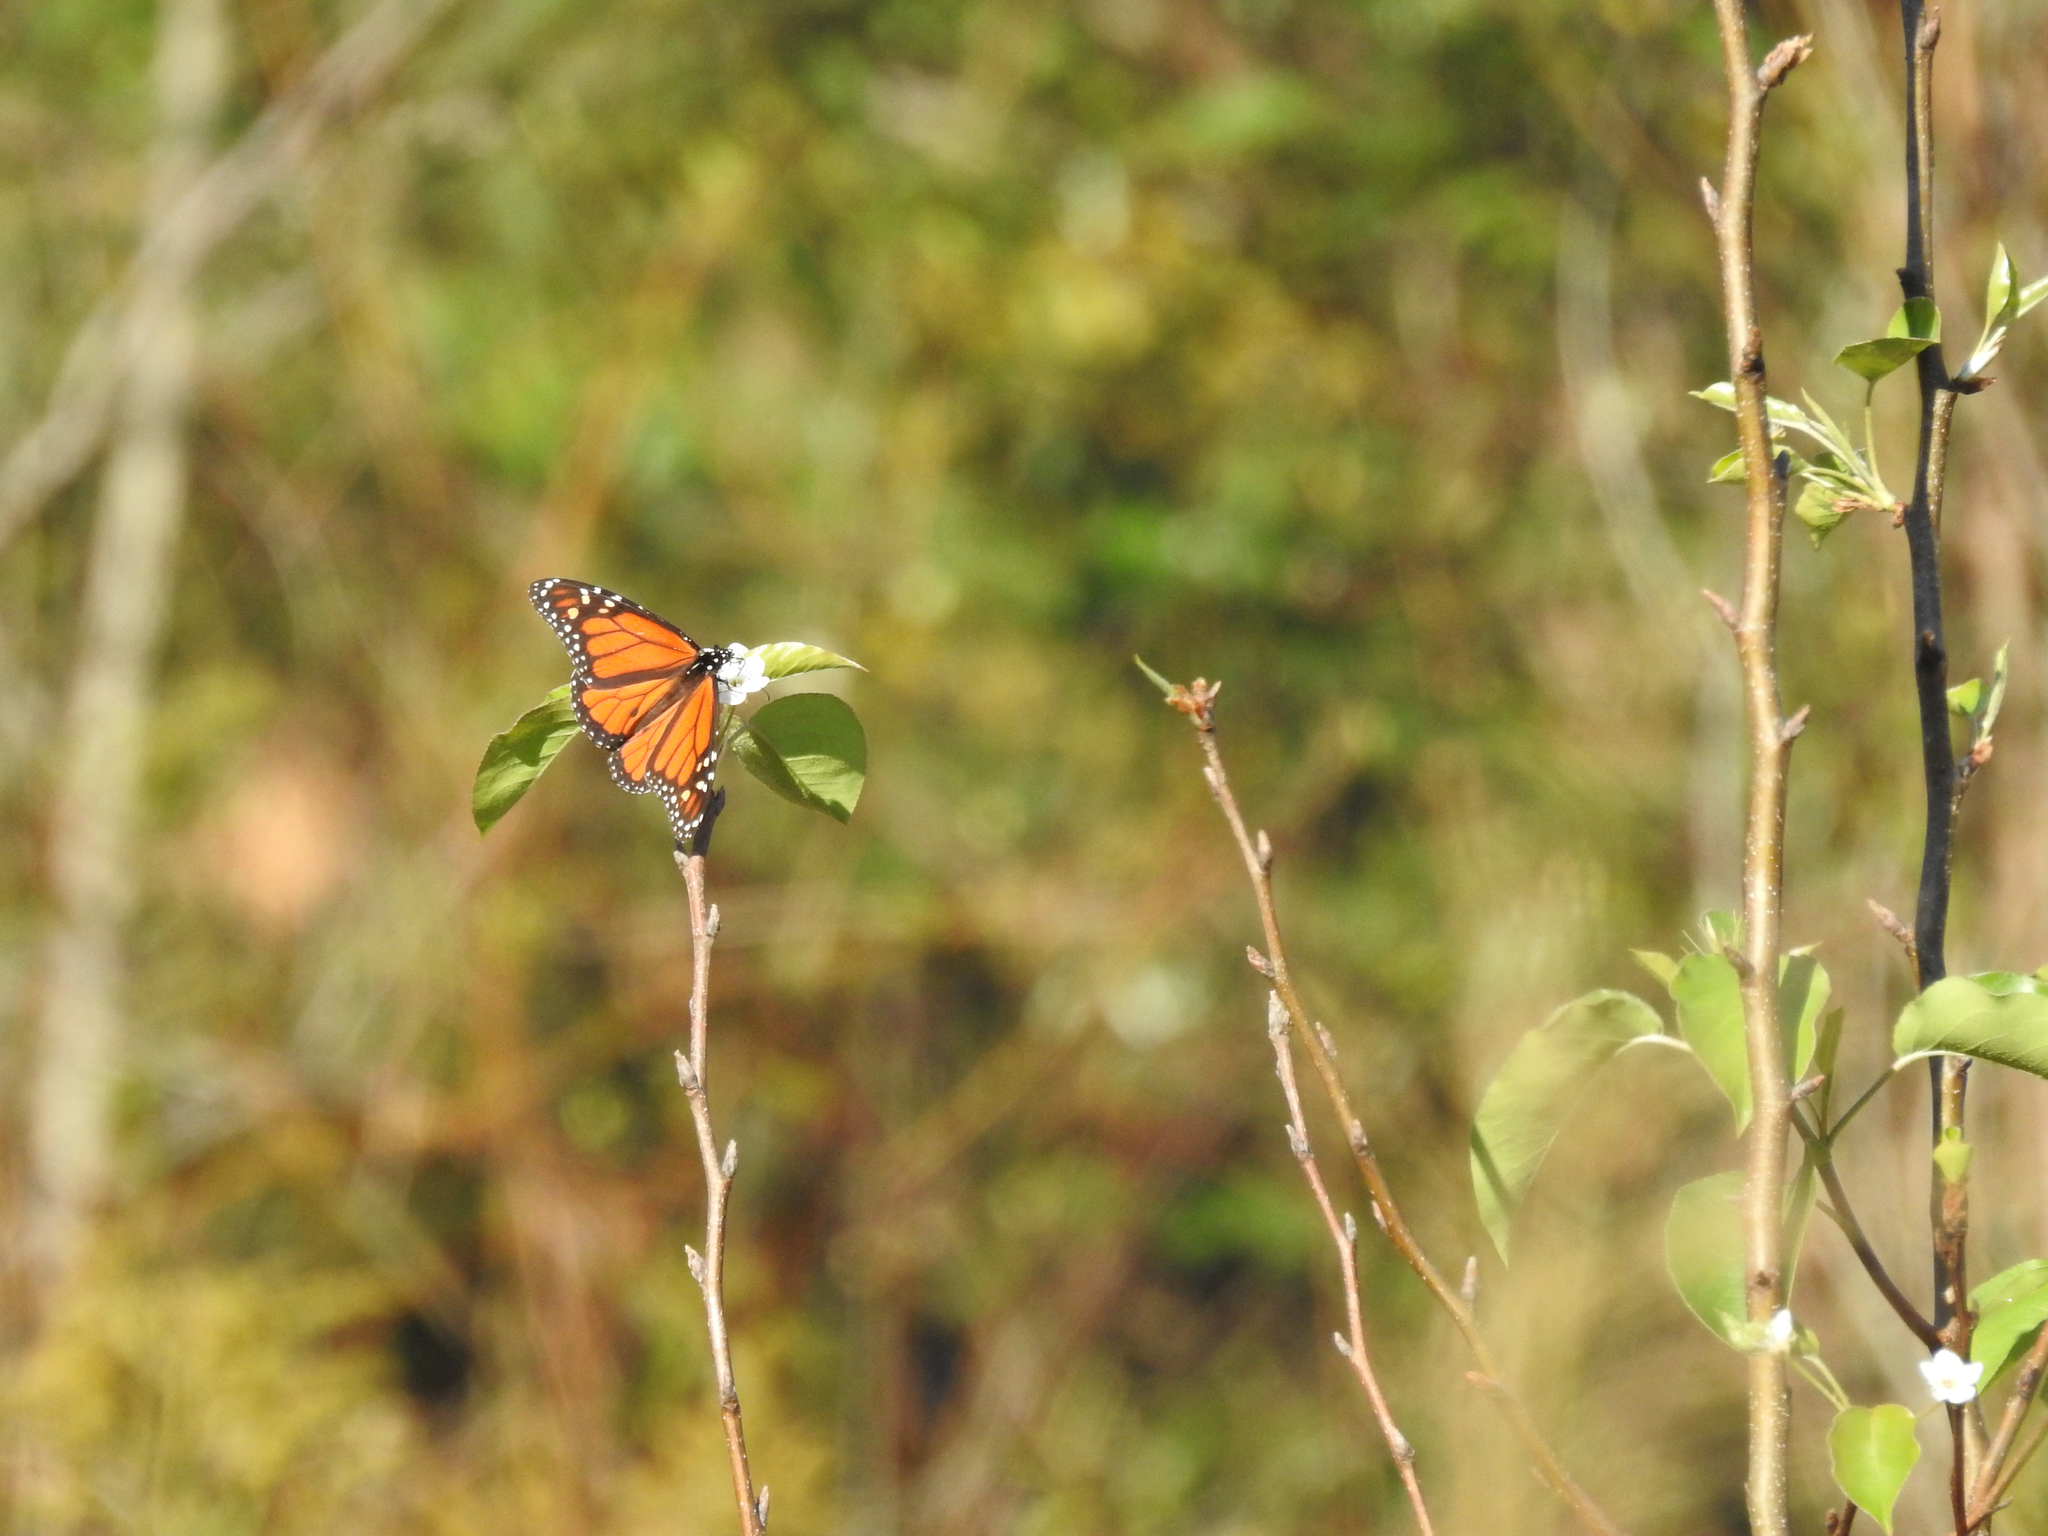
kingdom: Animalia
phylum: Arthropoda
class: Insecta
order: Lepidoptera
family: Nymphalidae
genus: Danaus
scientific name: Danaus plexippus
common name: Monarch
